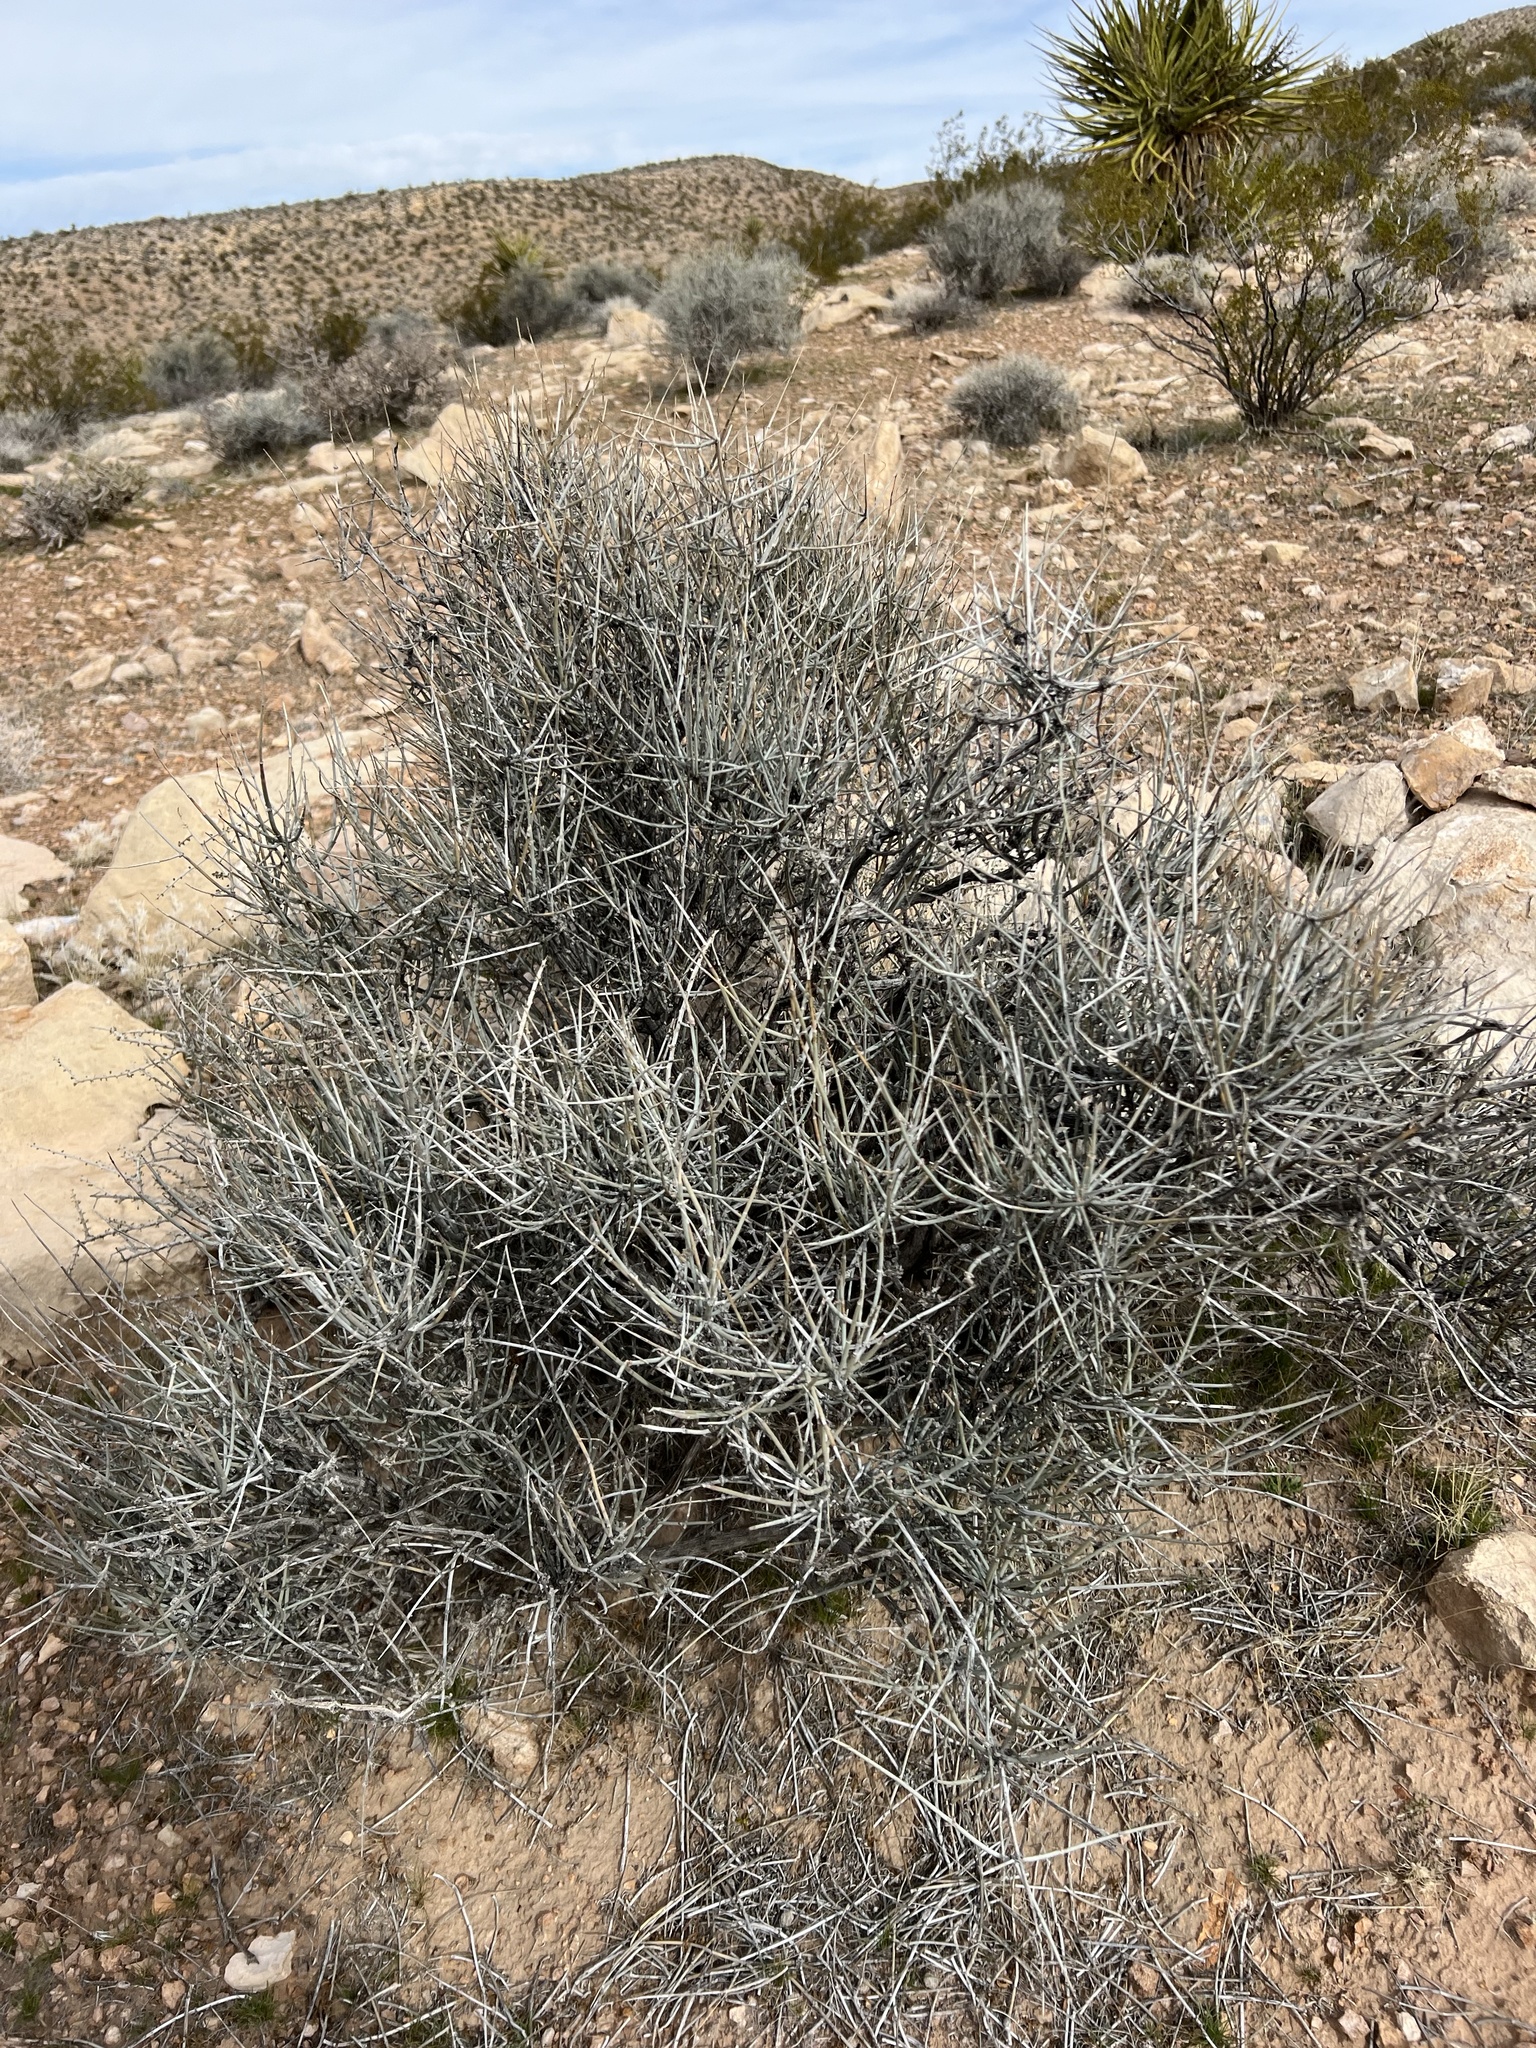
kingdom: Plantae
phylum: Tracheophyta
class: Gnetopsida
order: Ephedrales
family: Ephedraceae
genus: Ephedra
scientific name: Ephedra nevadensis
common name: Gray ephedra
